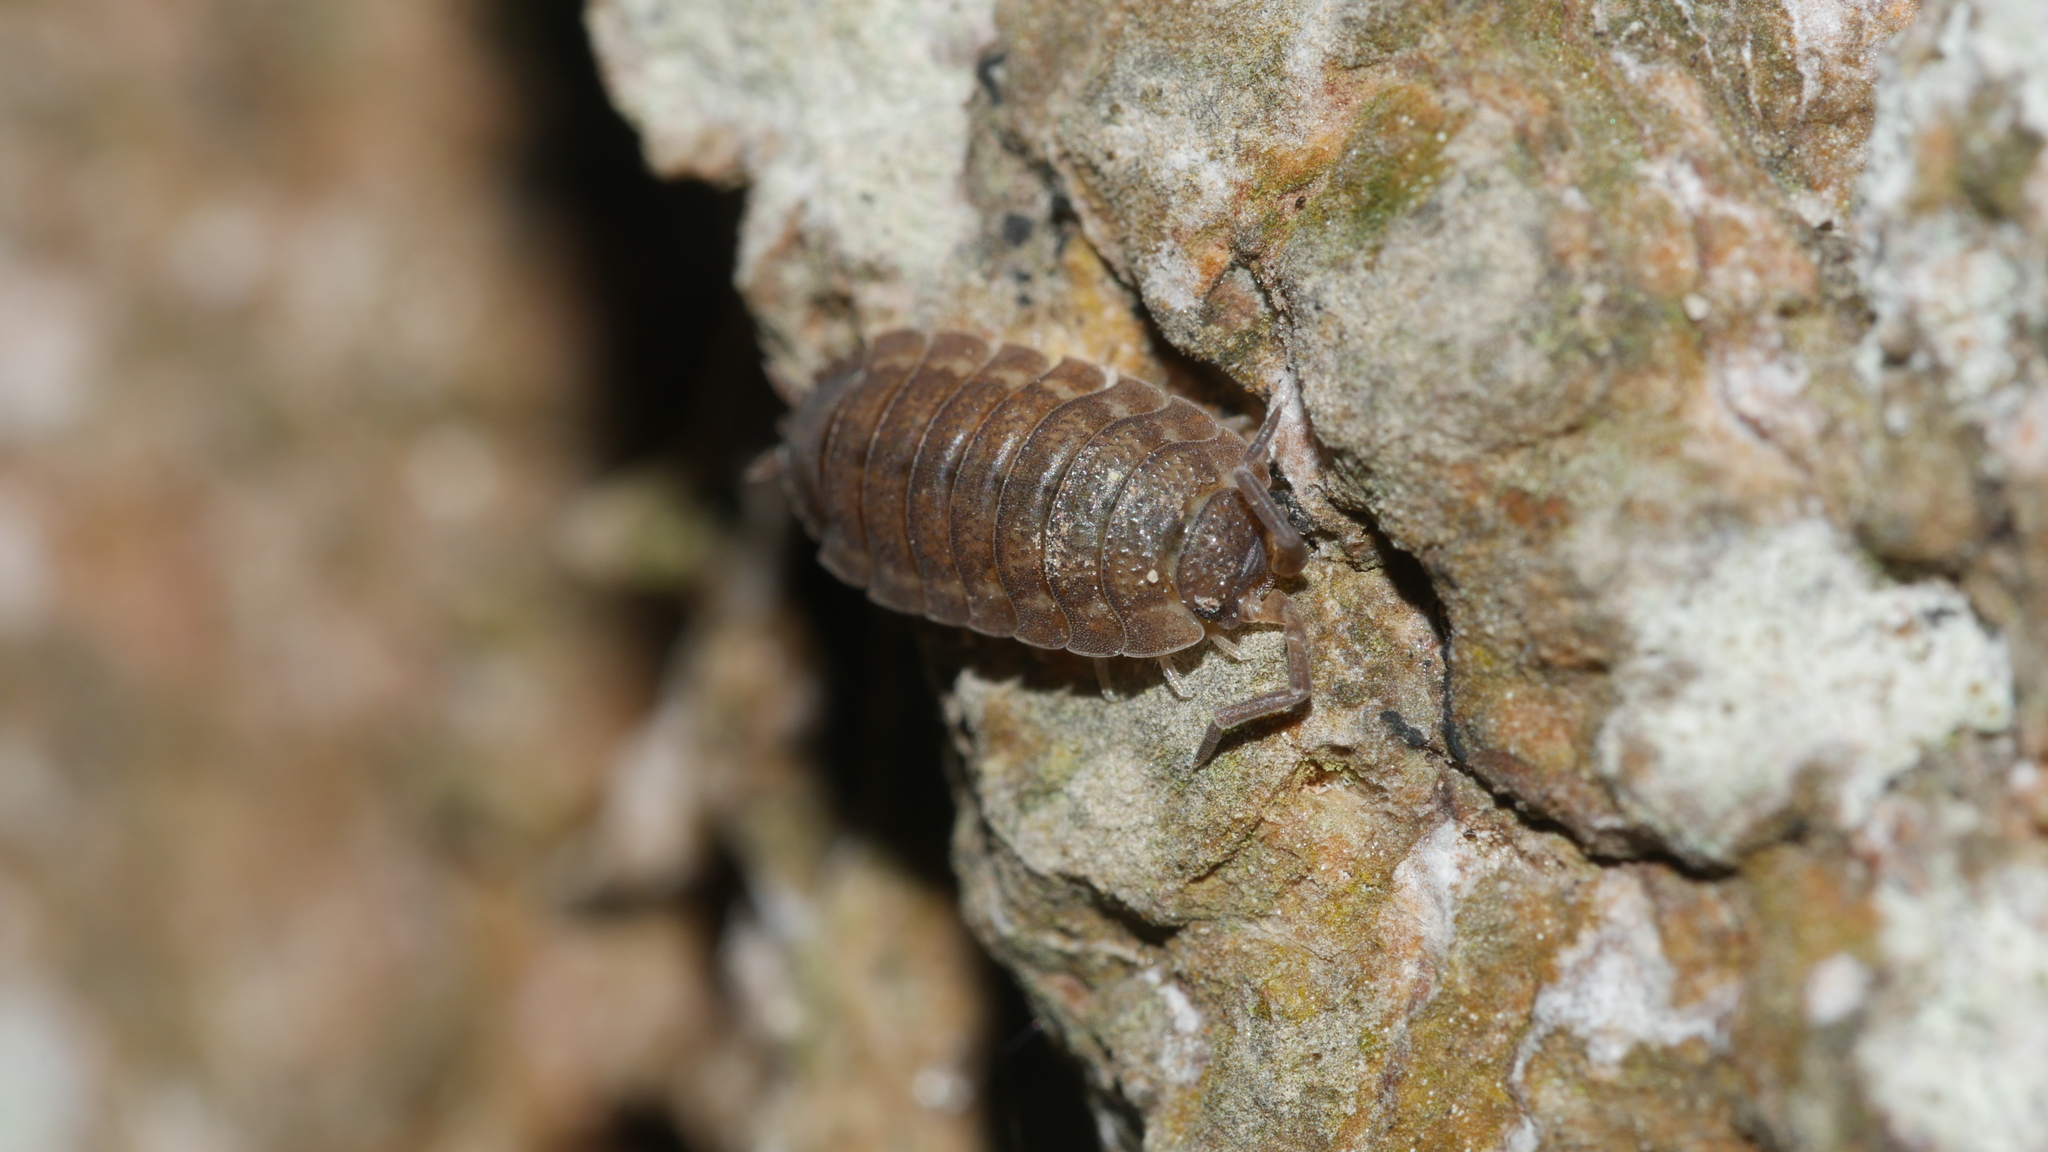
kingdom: Animalia
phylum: Arthropoda
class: Malacostraca
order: Isopoda
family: Porcellionidae
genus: Porcellio
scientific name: Porcellio scaber
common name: Common rough woodlouse
